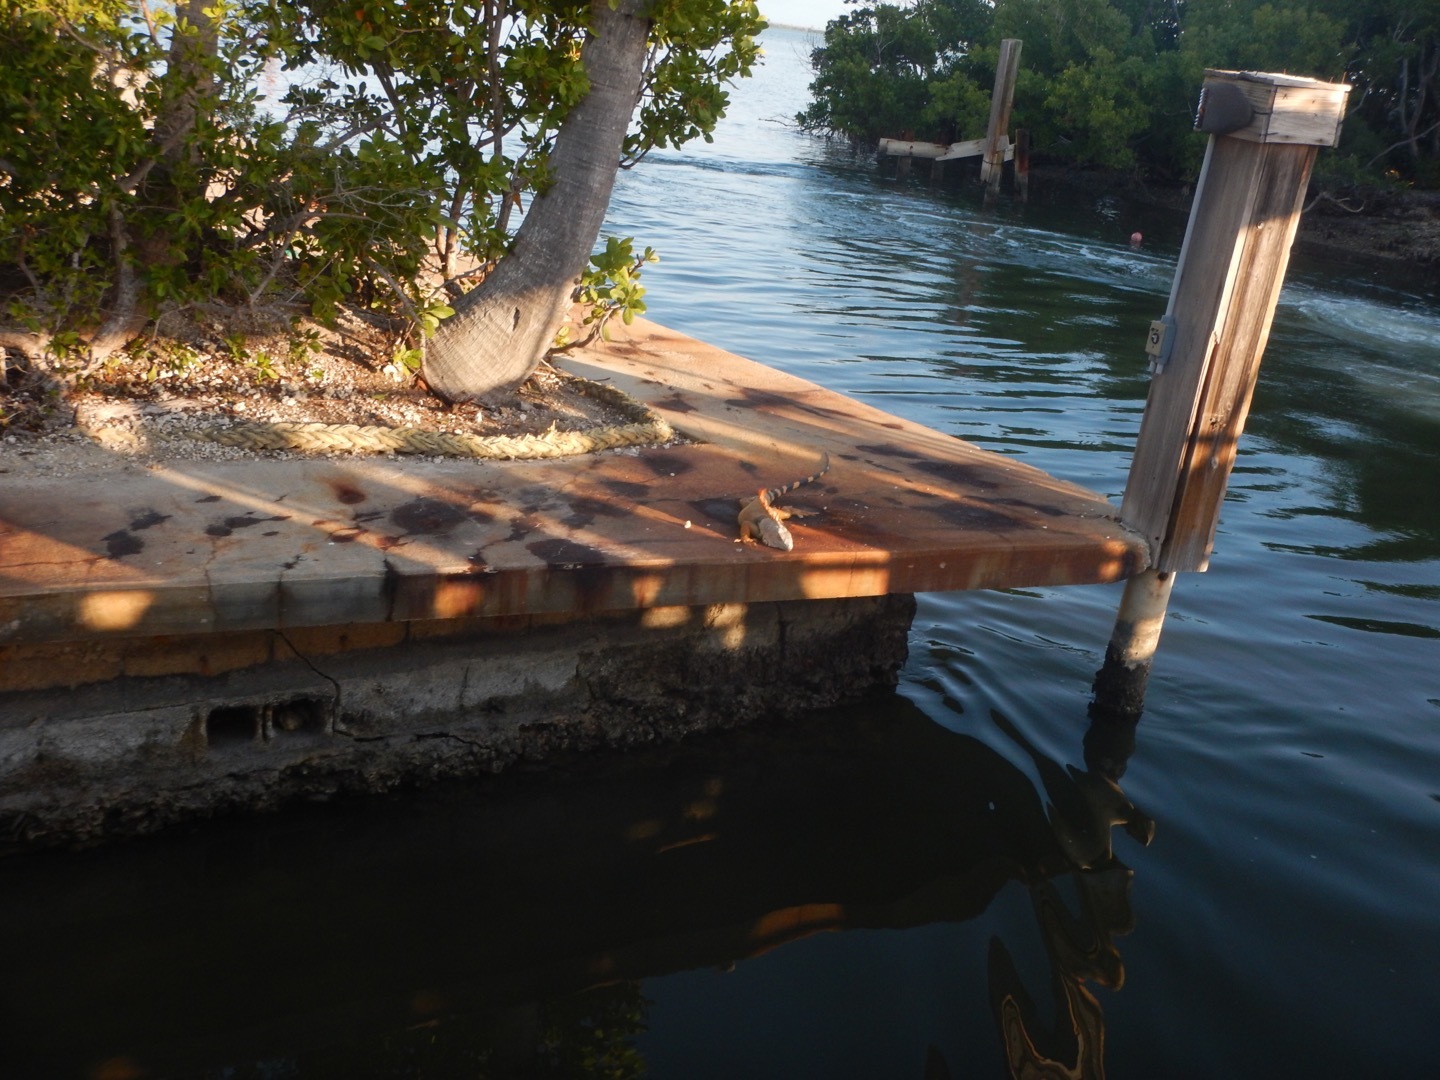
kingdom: Animalia
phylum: Chordata
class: Squamata
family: Iguanidae
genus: Iguana
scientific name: Iguana iguana
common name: Green iguana
